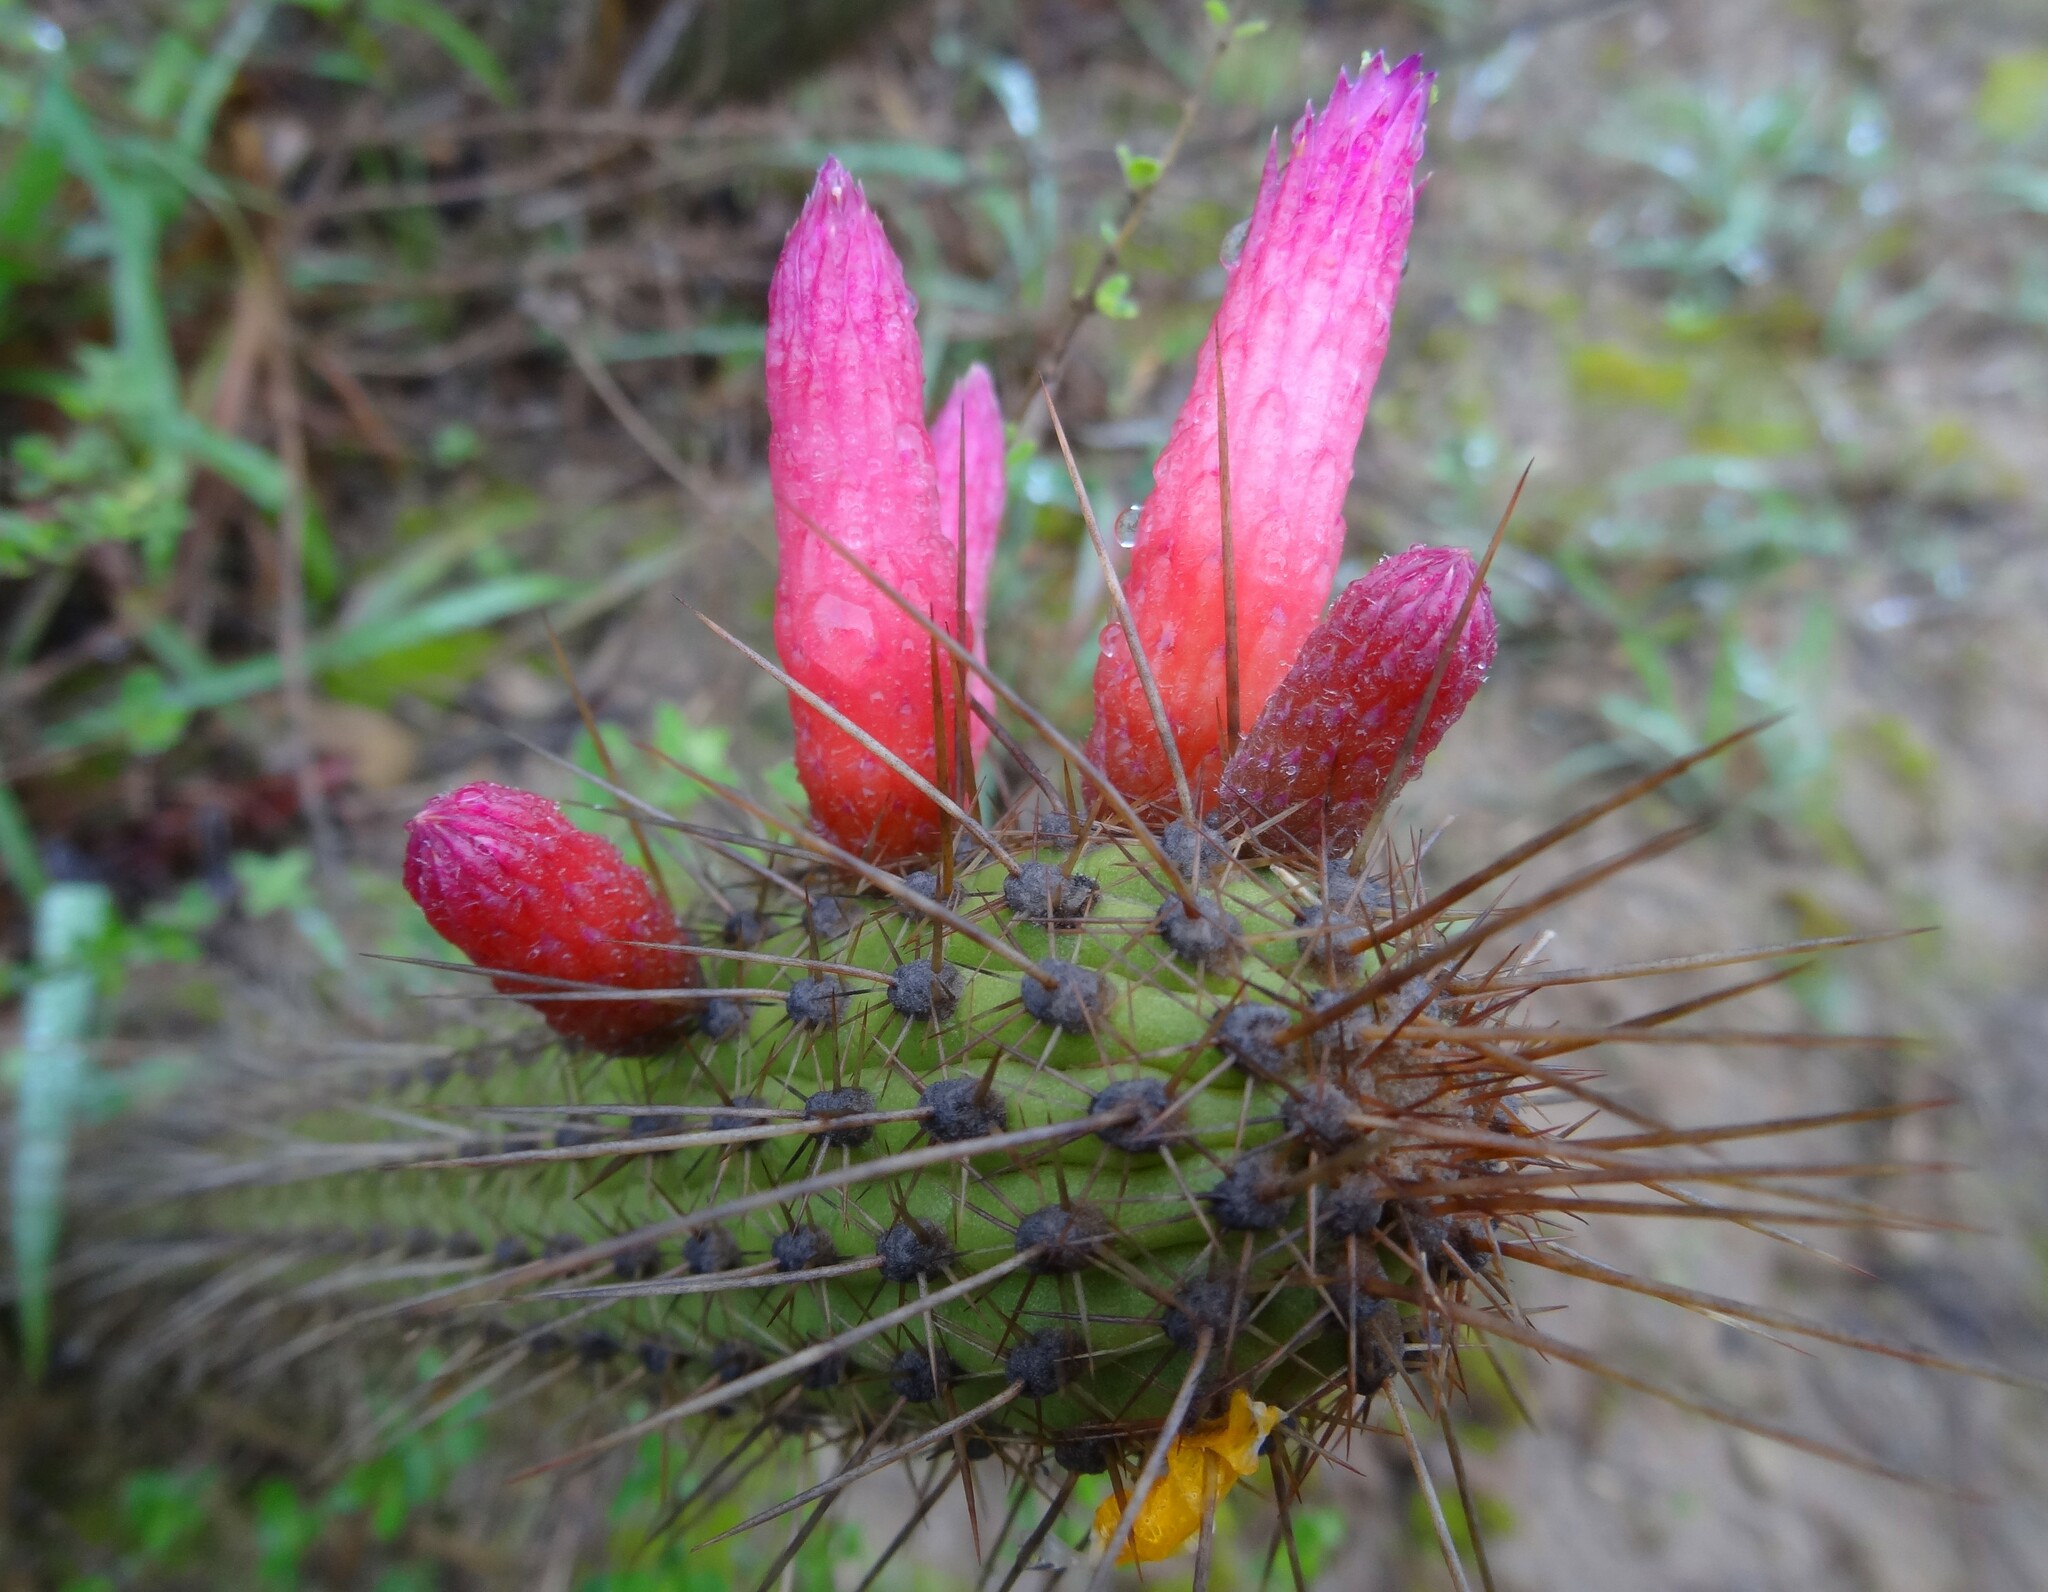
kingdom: Plantae
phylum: Tracheophyta
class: Magnoliopsida
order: Caryophyllales
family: Cactaceae
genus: Cleistocactus
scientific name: Cleistocactus candelilla
